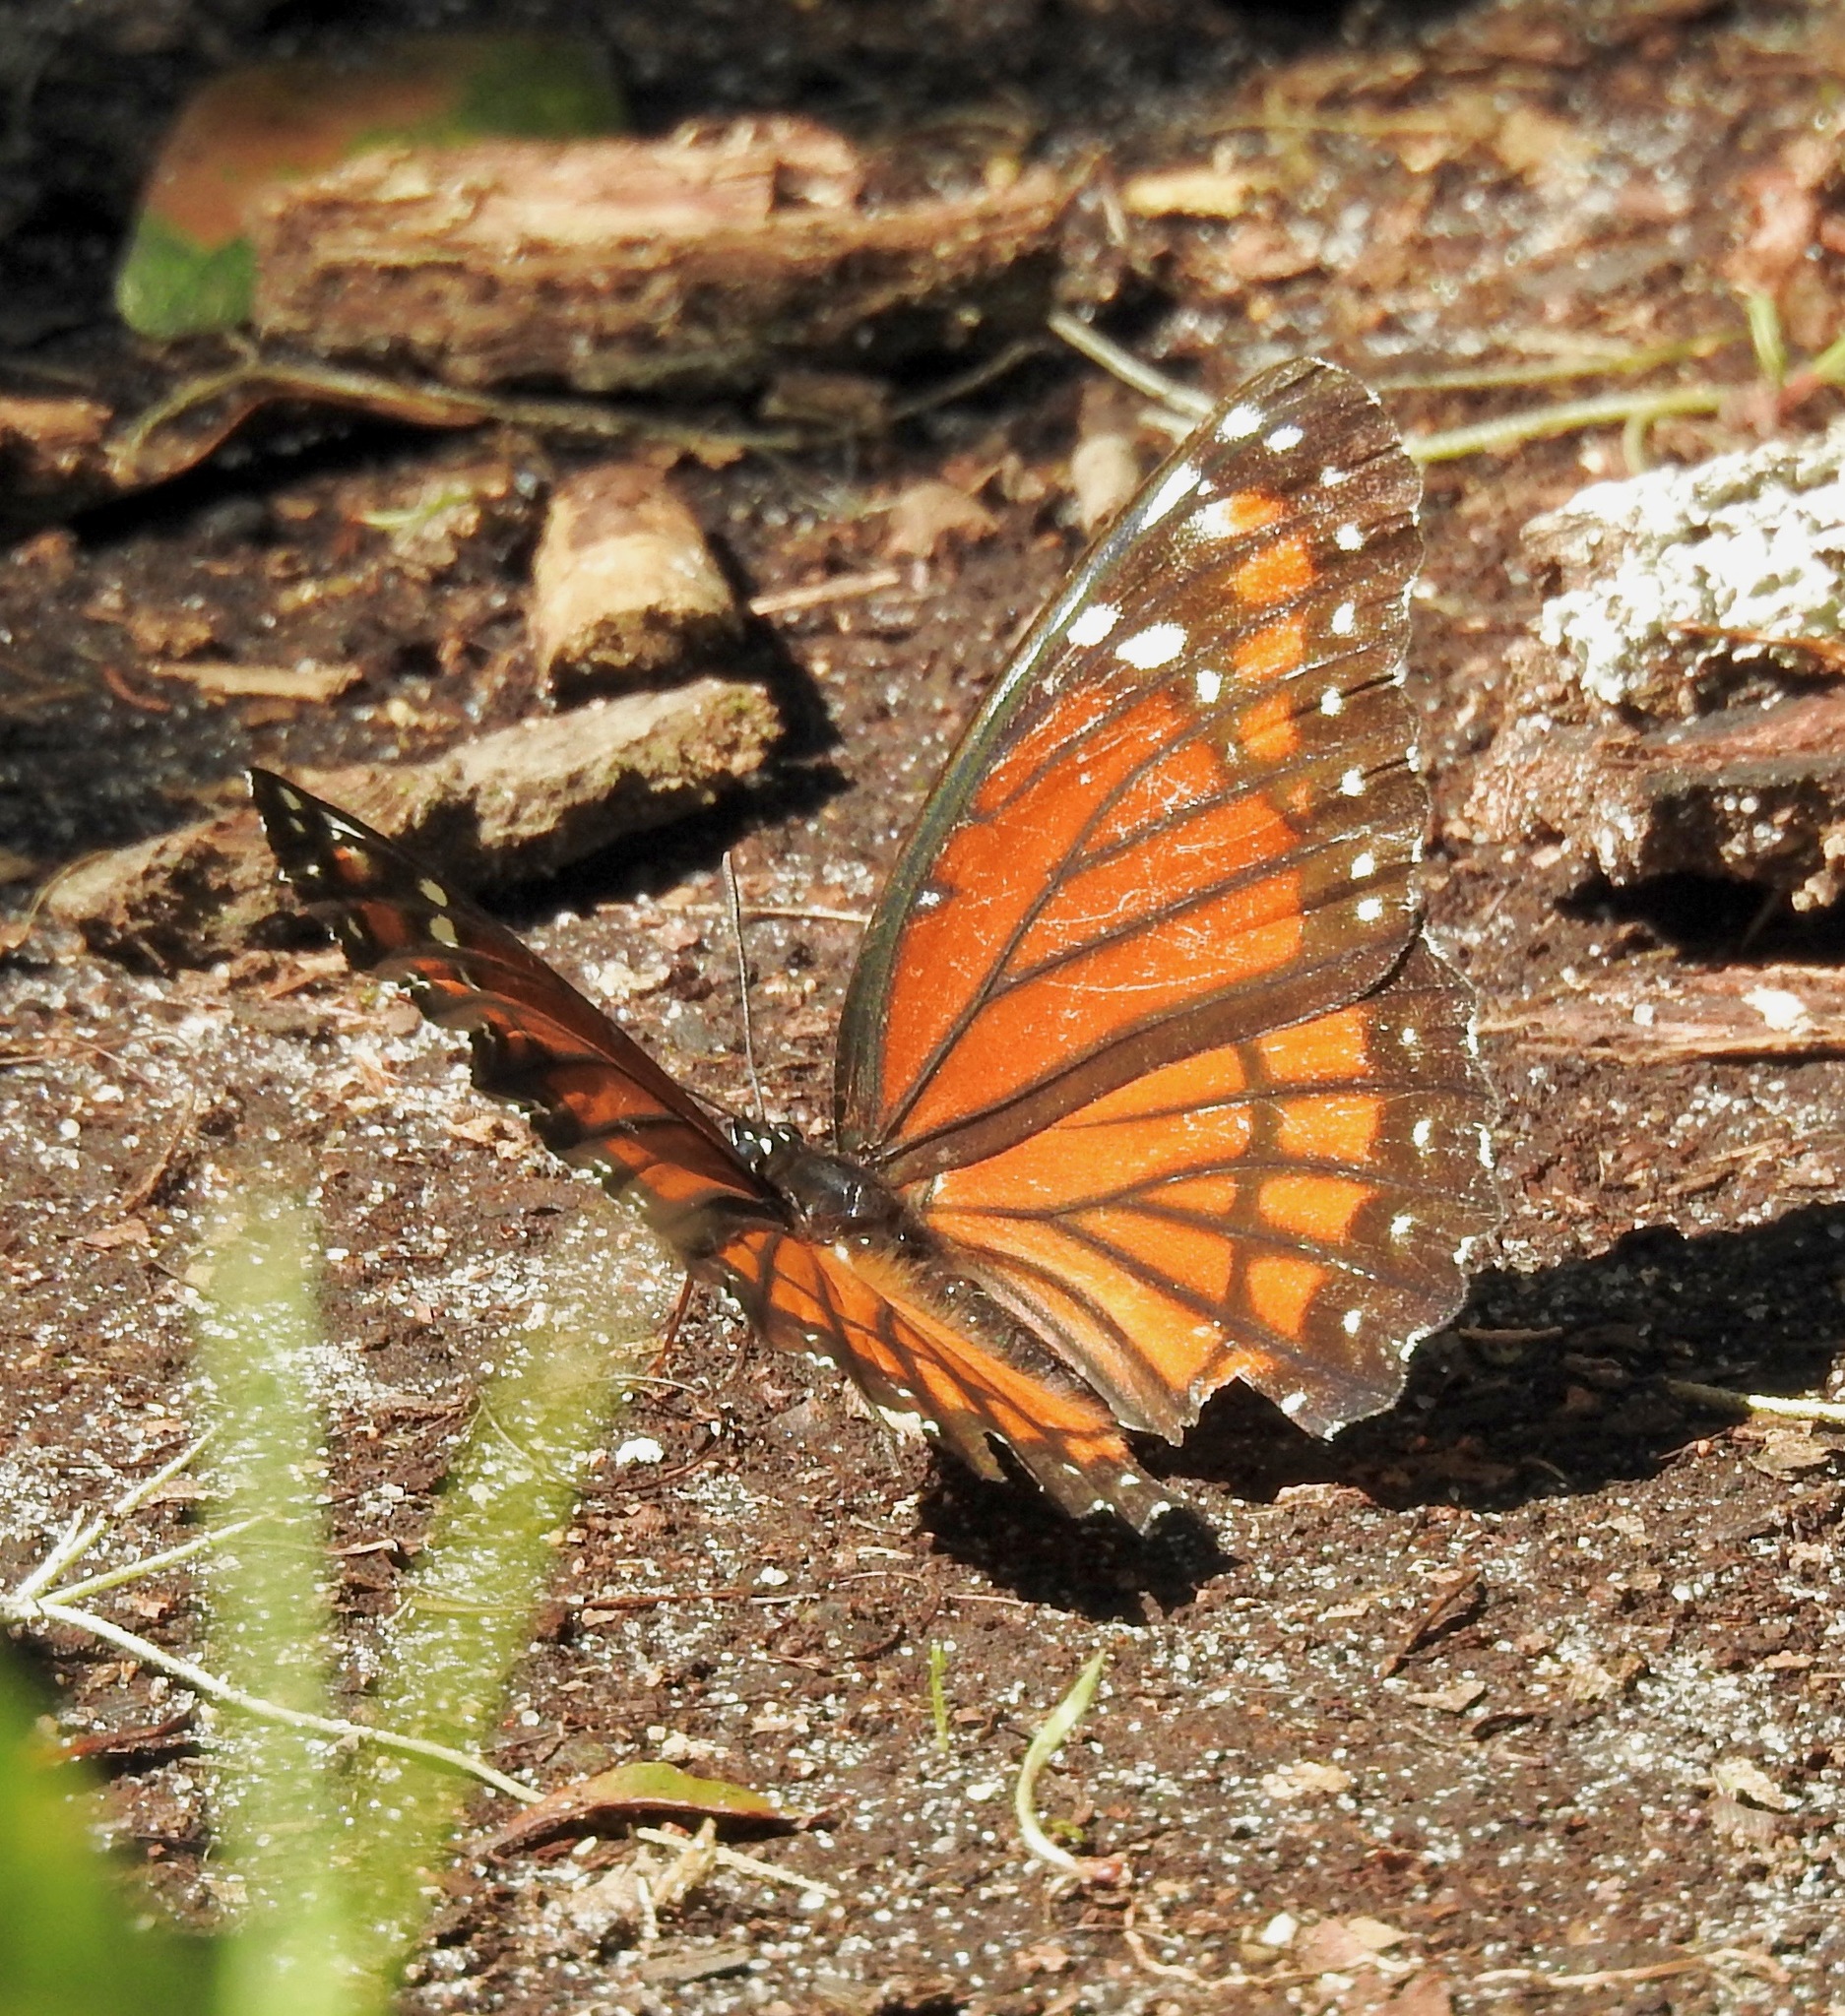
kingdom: Animalia
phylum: Arthropoda
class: Insecta
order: Lepidoptera
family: Nymphalidae
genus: Limenitis
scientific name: Limenitis archippus
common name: Viceroy
